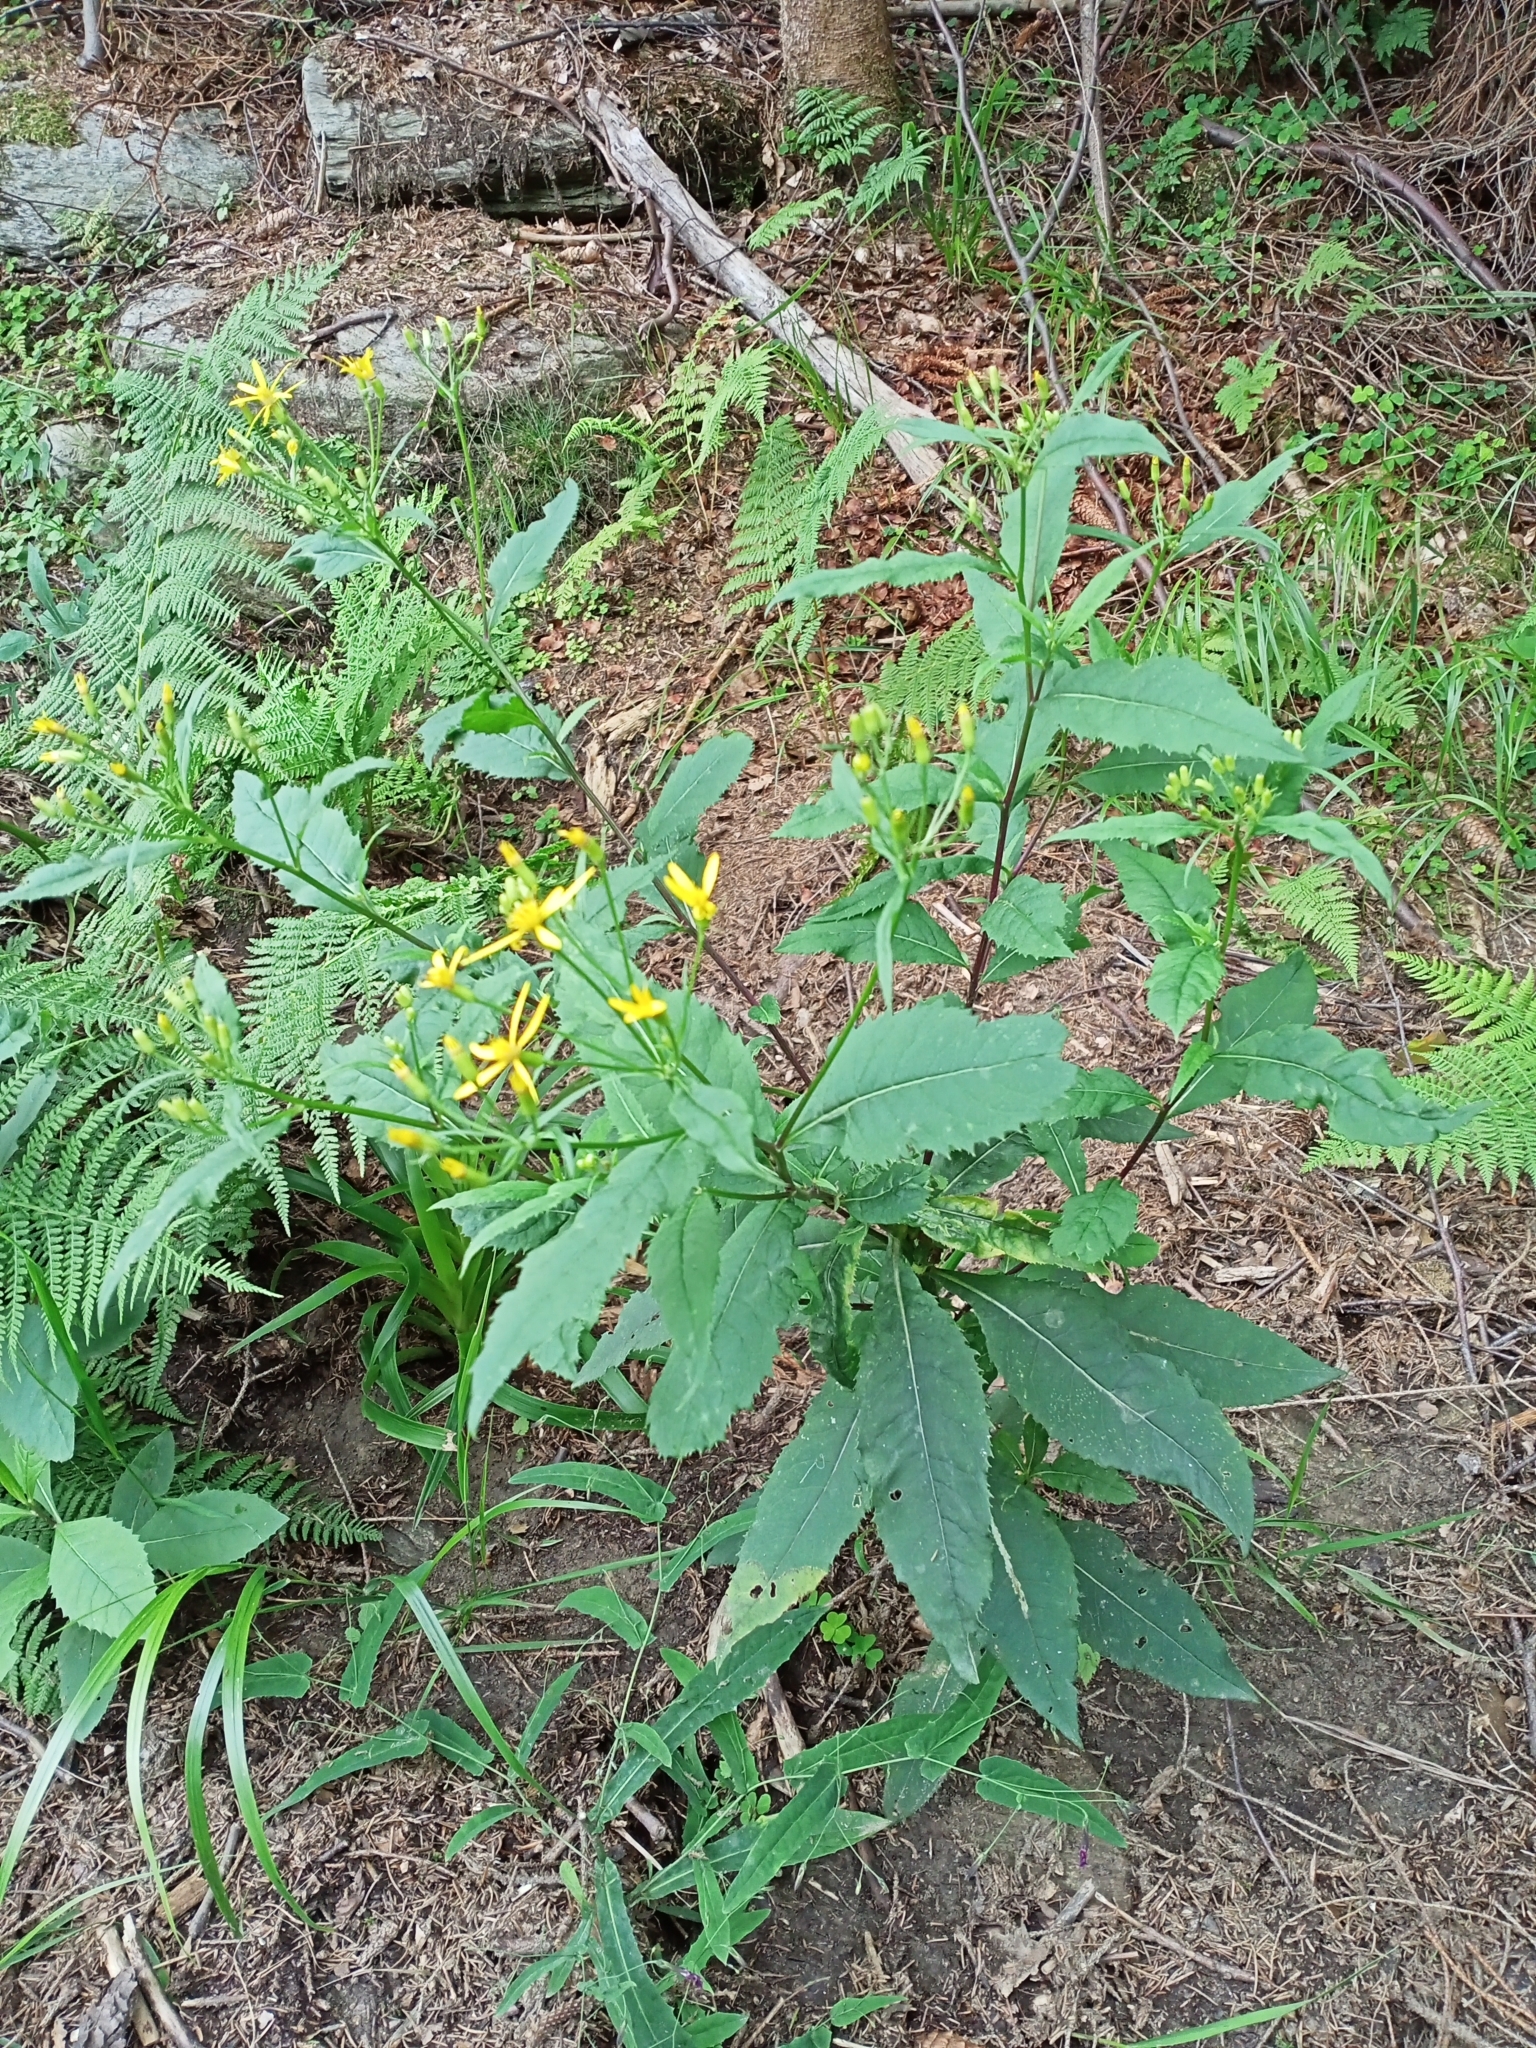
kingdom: Plantae
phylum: Tracheophyta
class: Magnoliopsida
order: Asterales
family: Asteraceae
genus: Senecio
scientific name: Senecio ovatus
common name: Wood ragwort
